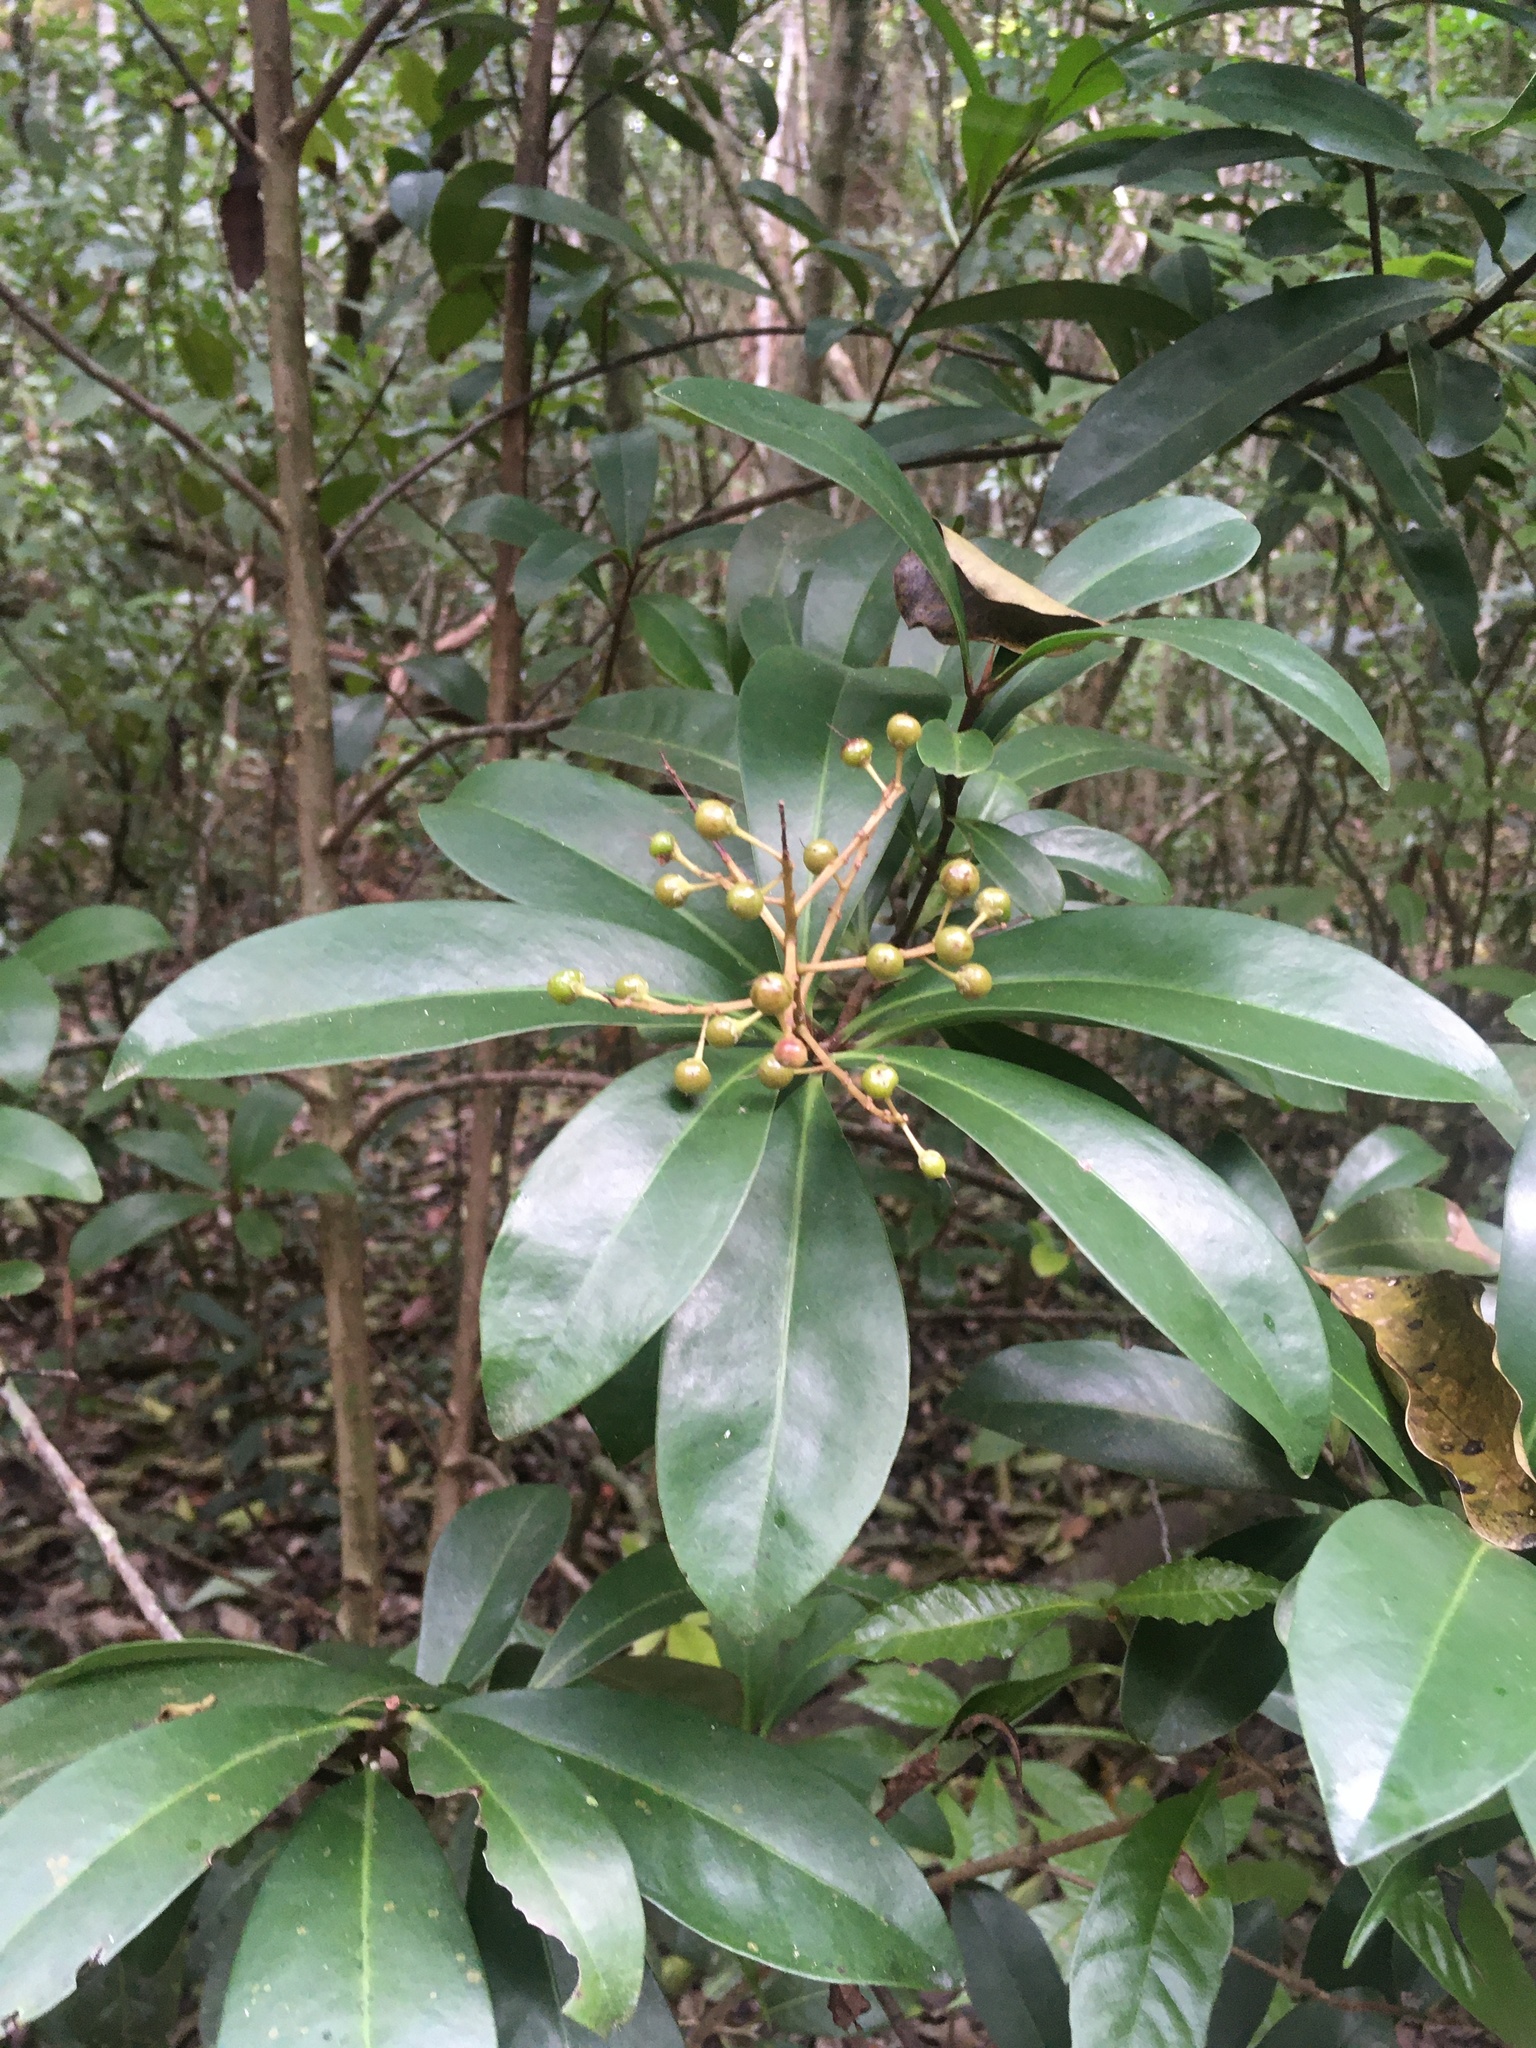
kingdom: Plantae
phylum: Tracheophyta
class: Magnoliopsida
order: Ericales
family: Primulaceae
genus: Ardisia
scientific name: Ardisia escallonioides
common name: Island marlberry
